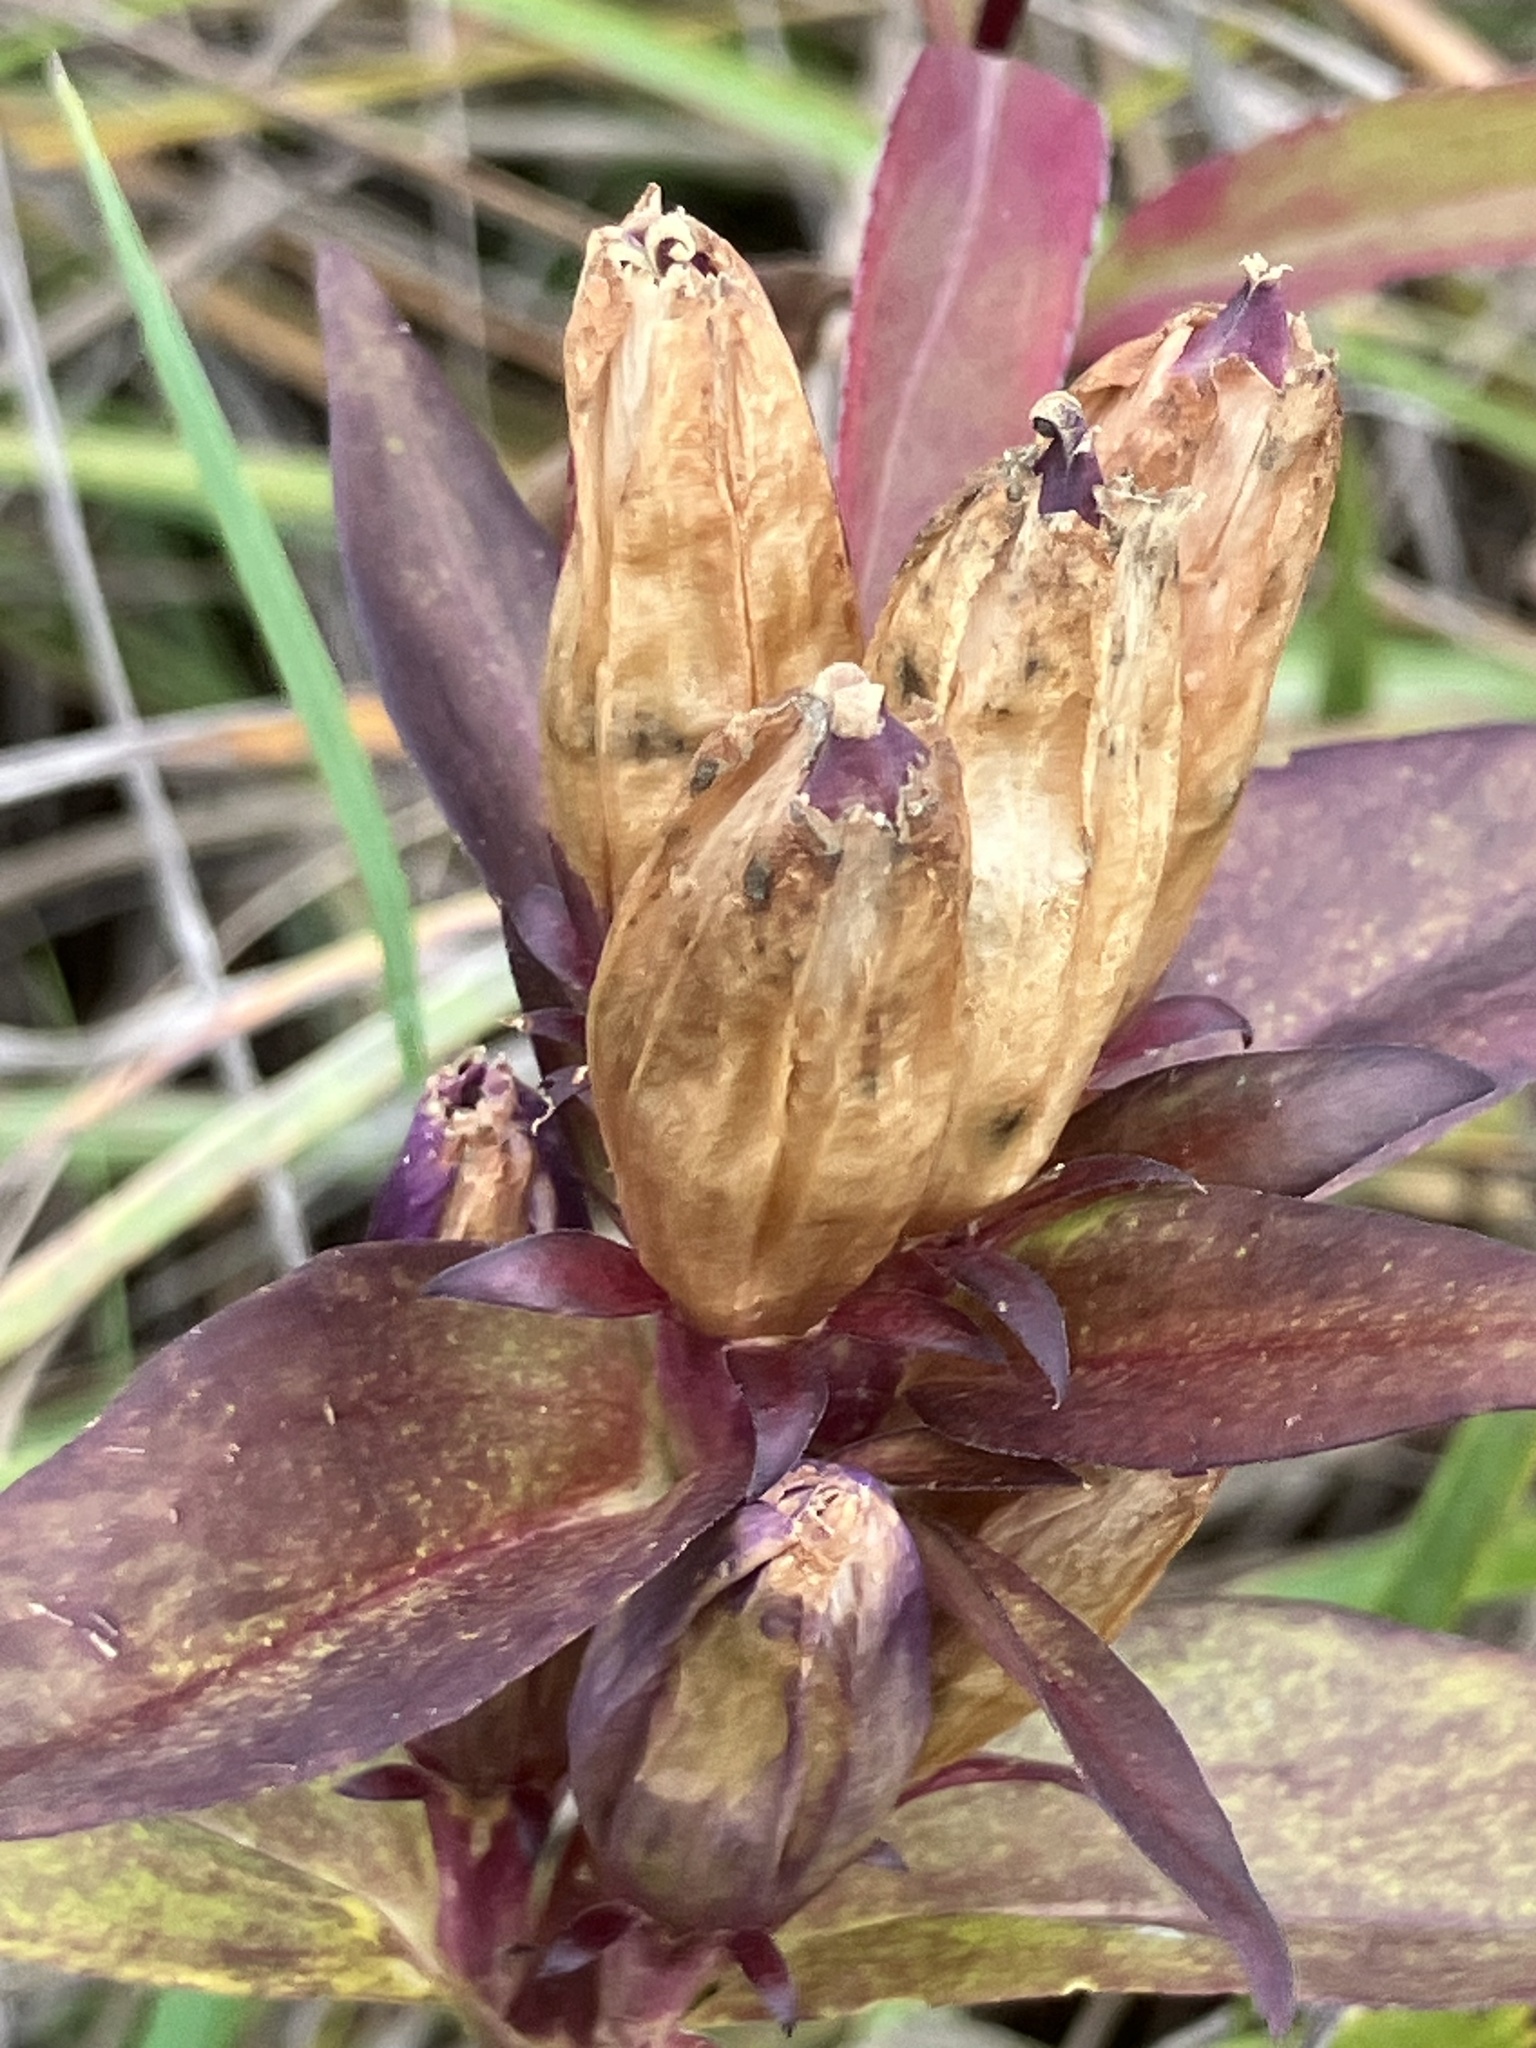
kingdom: Plantae
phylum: Tracheophyta
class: Magnoliopsida
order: Gentianales
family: Gentianaceae
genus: Gentiana
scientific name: Gentiana andrewsii
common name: Bottle gentian
